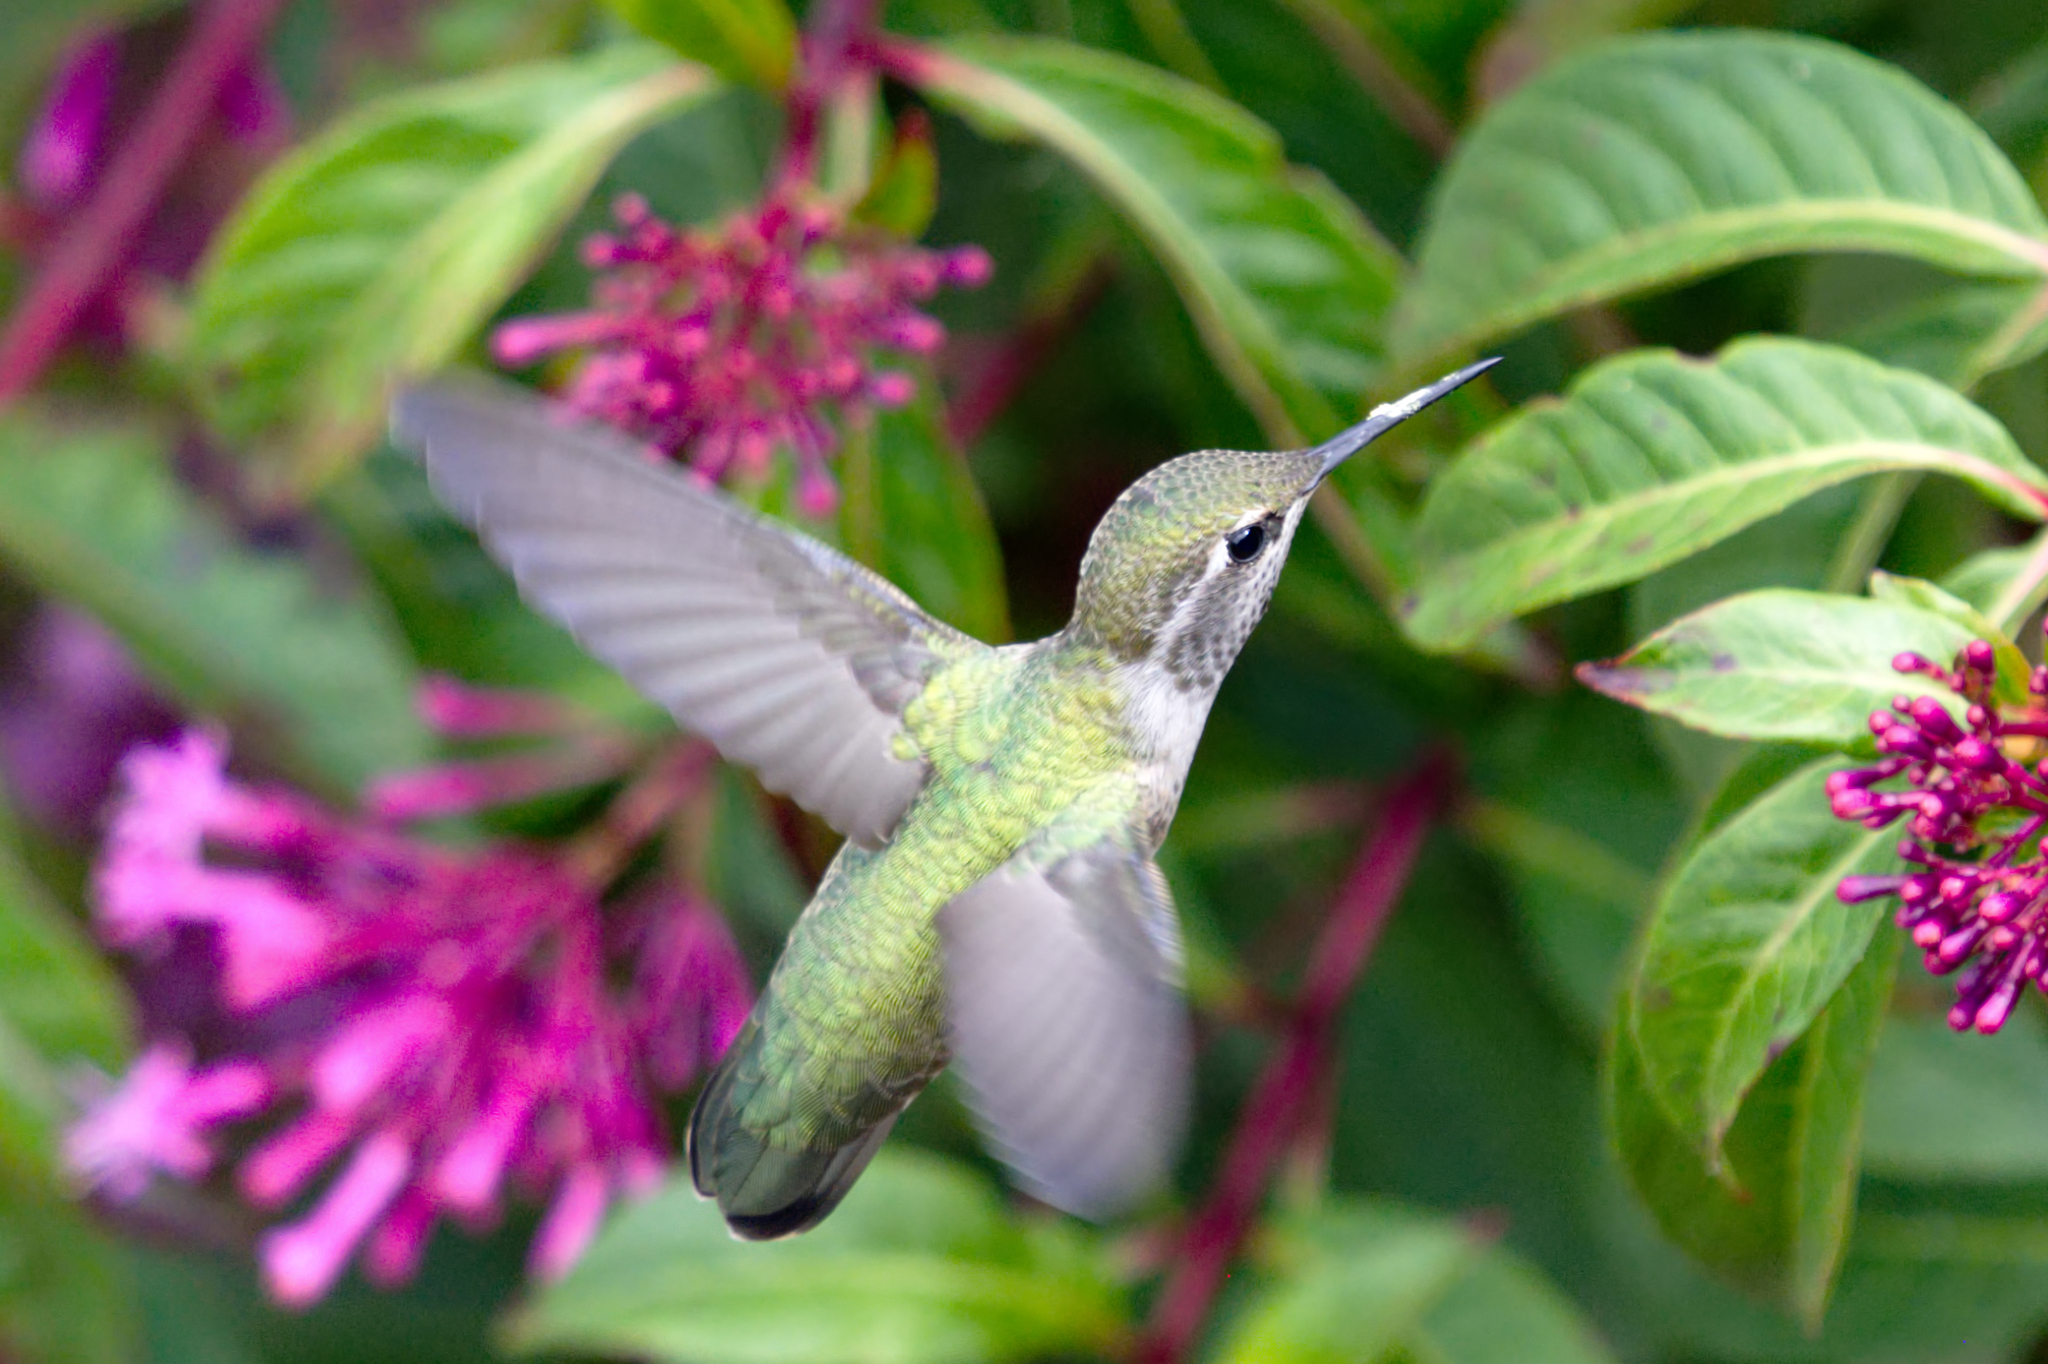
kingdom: Animalia
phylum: Chordata
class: Aves
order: Apodiformes
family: Trochilidae
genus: Calypte
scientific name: Calypte anna
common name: Anna's hummingbird
